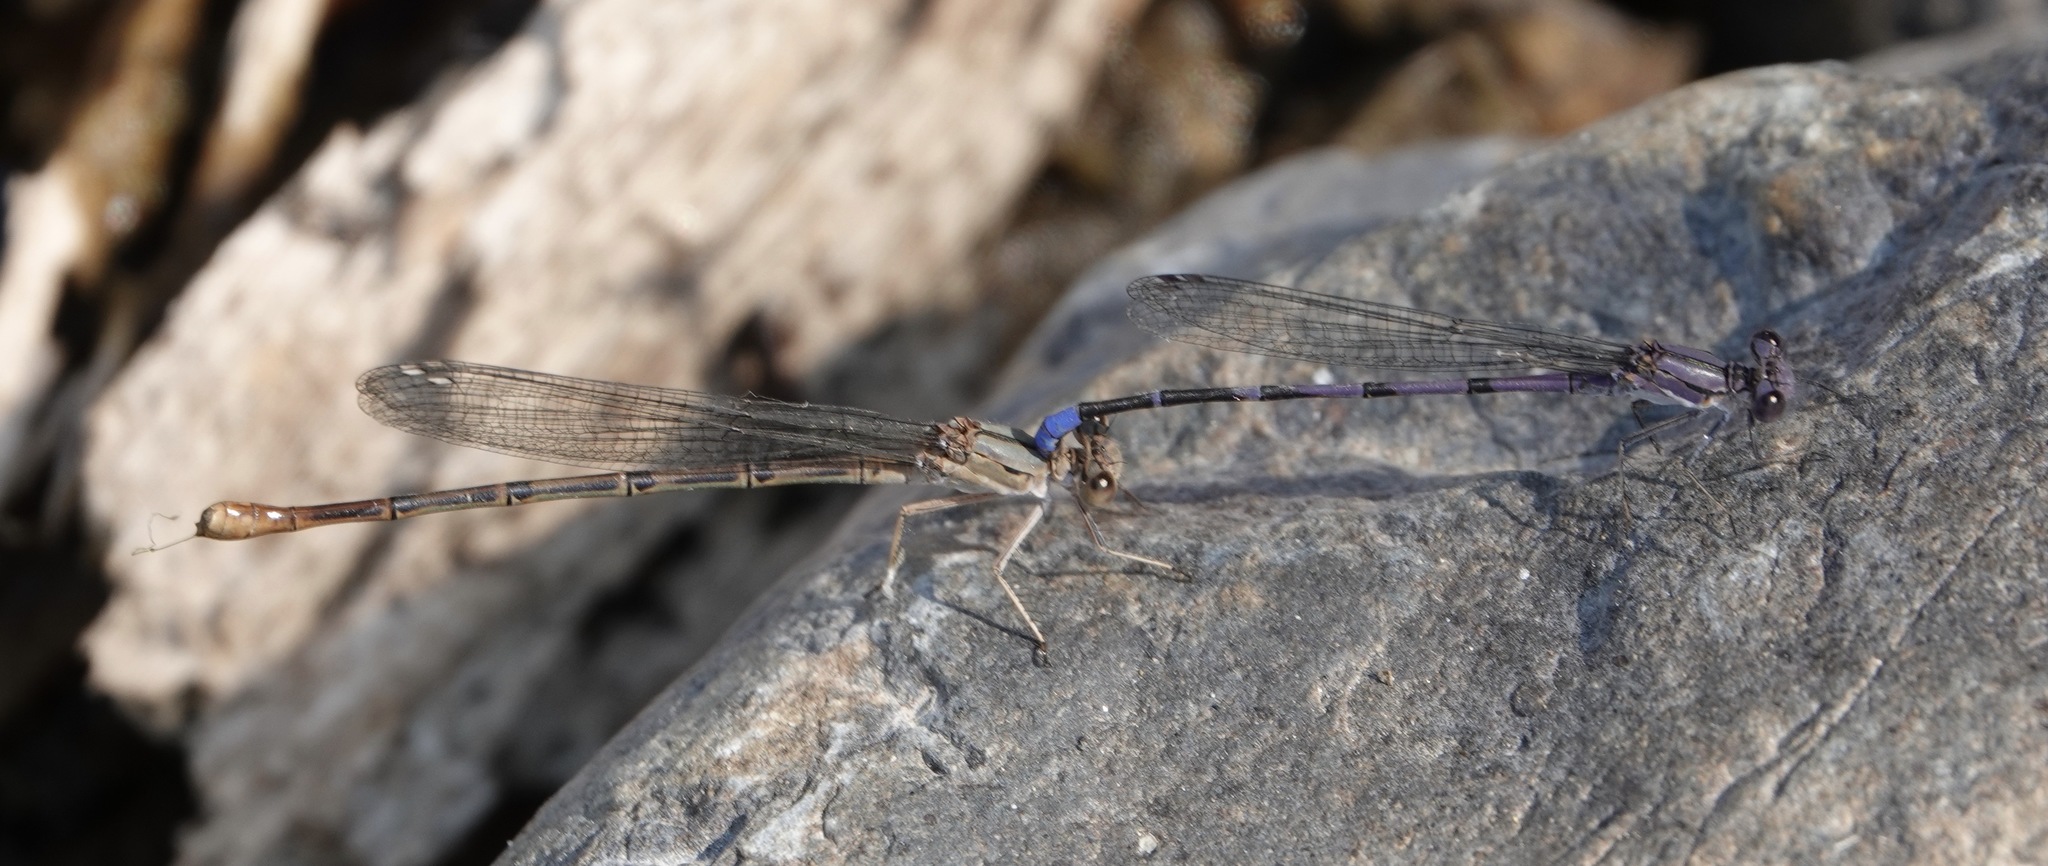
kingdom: Animalia
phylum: Arthropoda
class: Insecta
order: Odonata
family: Coenagrionidae
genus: Argia
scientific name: Argia emma
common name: Emma's dancer
